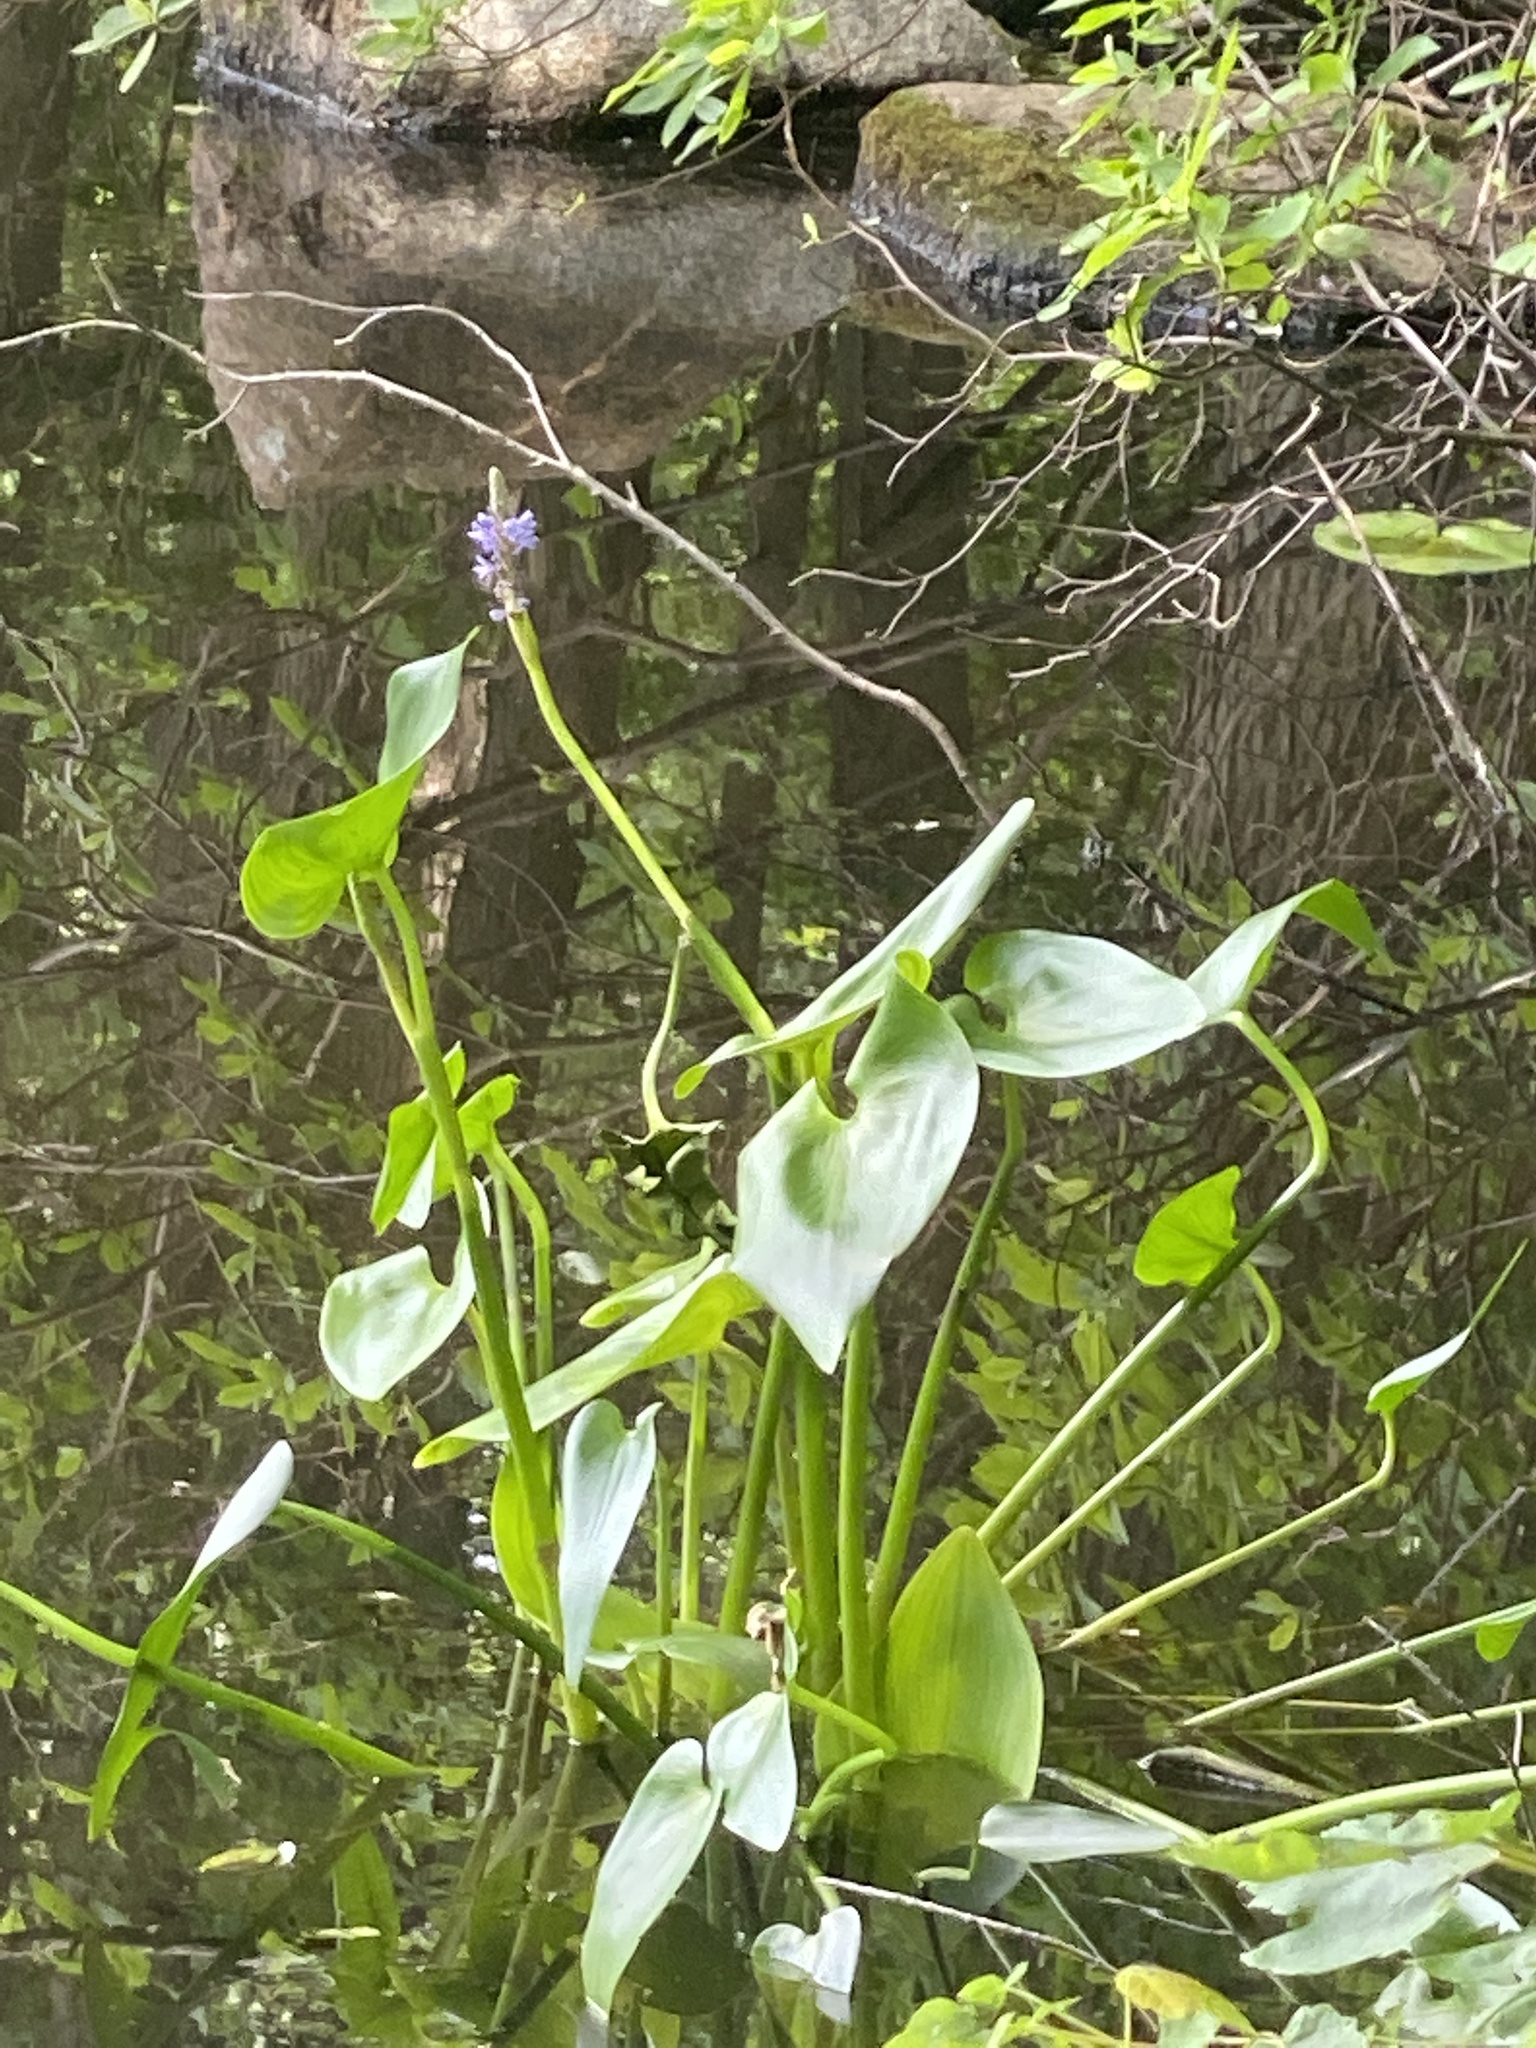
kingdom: Plantae
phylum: Tracheophyta
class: Liliopsida
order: Commelinales
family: Pontederiaceae
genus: Pontederia
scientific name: Pontederia cordata
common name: Pickerelweed
